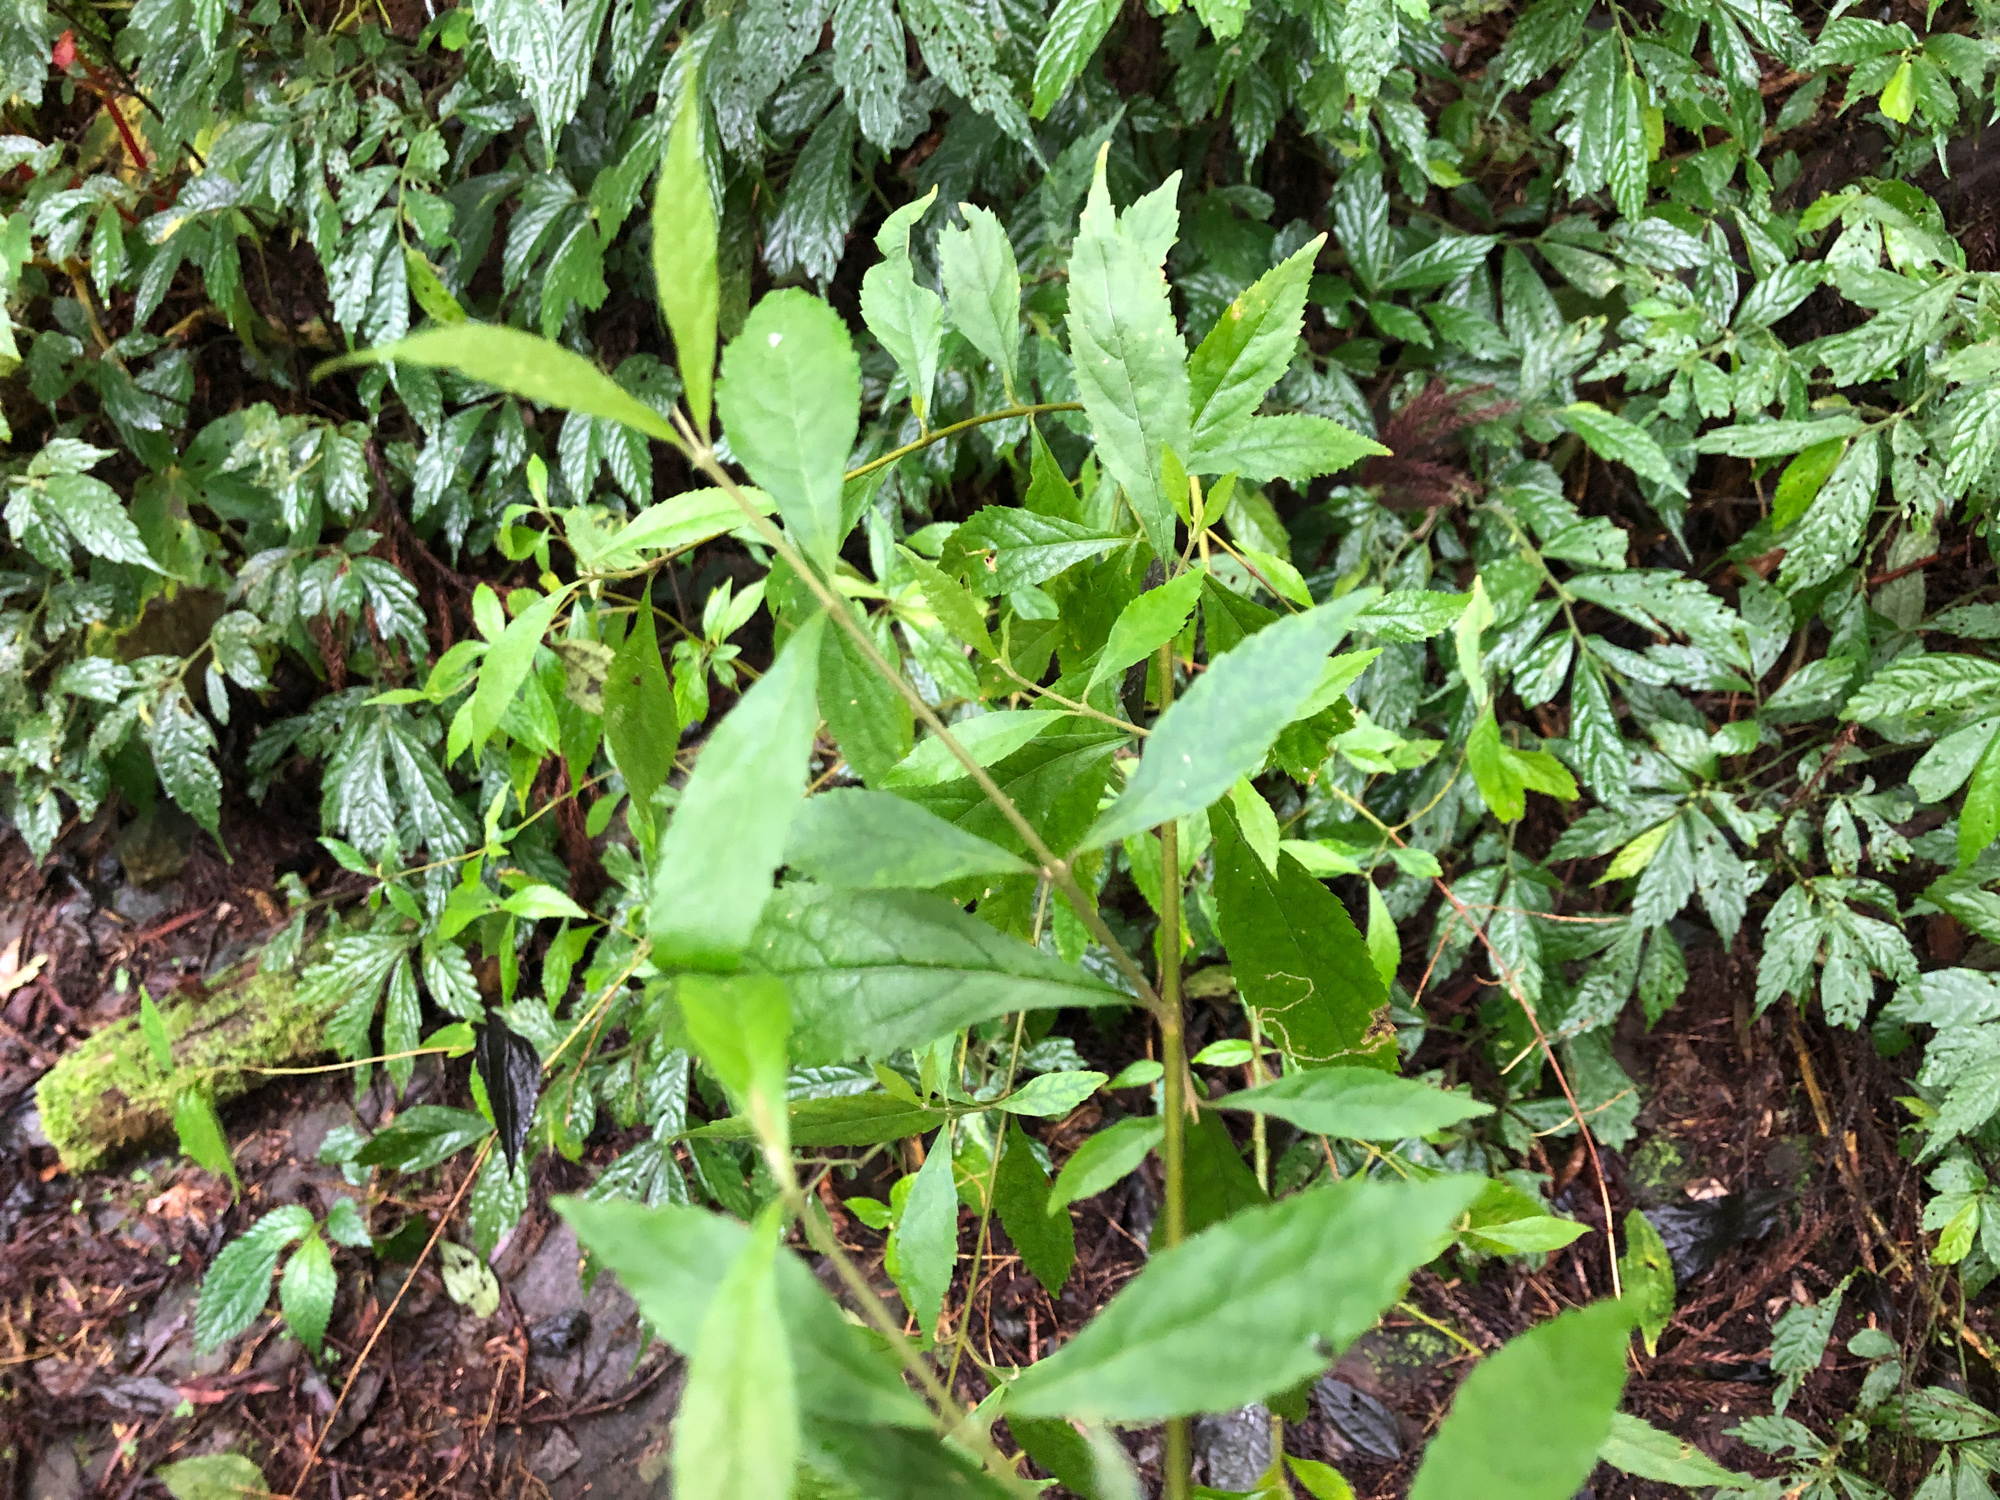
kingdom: Plantae
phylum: Tracheophyta
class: Magnoliopsida
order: Lamiales
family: Lamiaceae
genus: Callicarpa
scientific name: Callicarpa randaiensis
